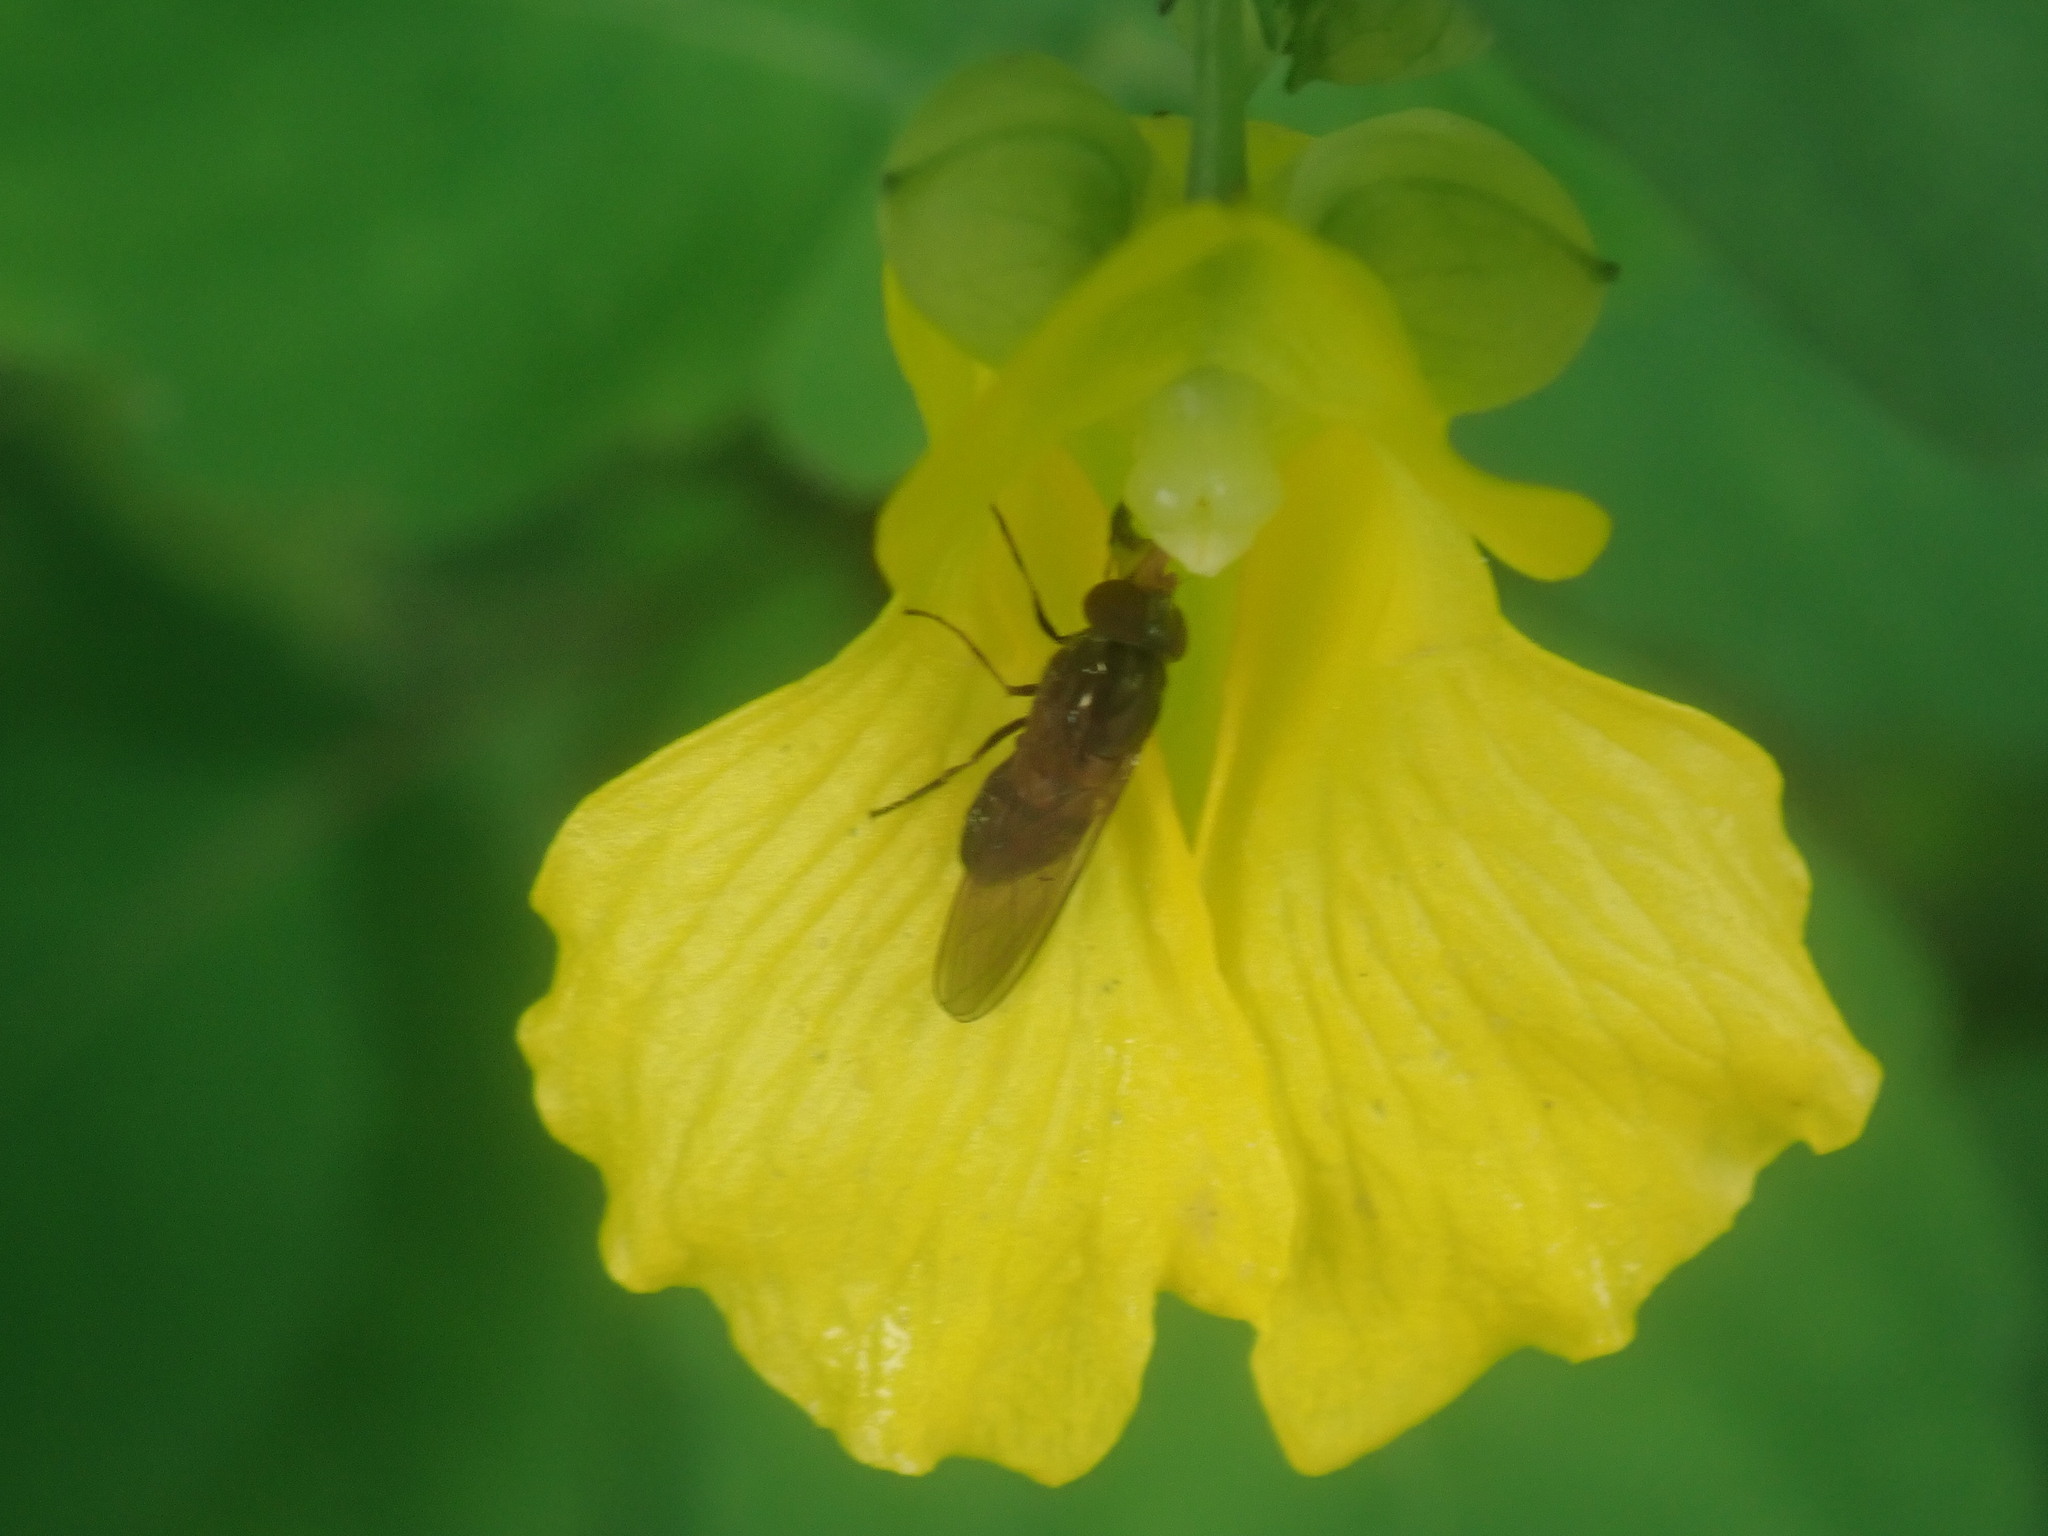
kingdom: Animalia
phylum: Arthropoda
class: Insecta
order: Diptera
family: Syrphidae
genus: Rhingia
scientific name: Rhingia nasica
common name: American snout fly
